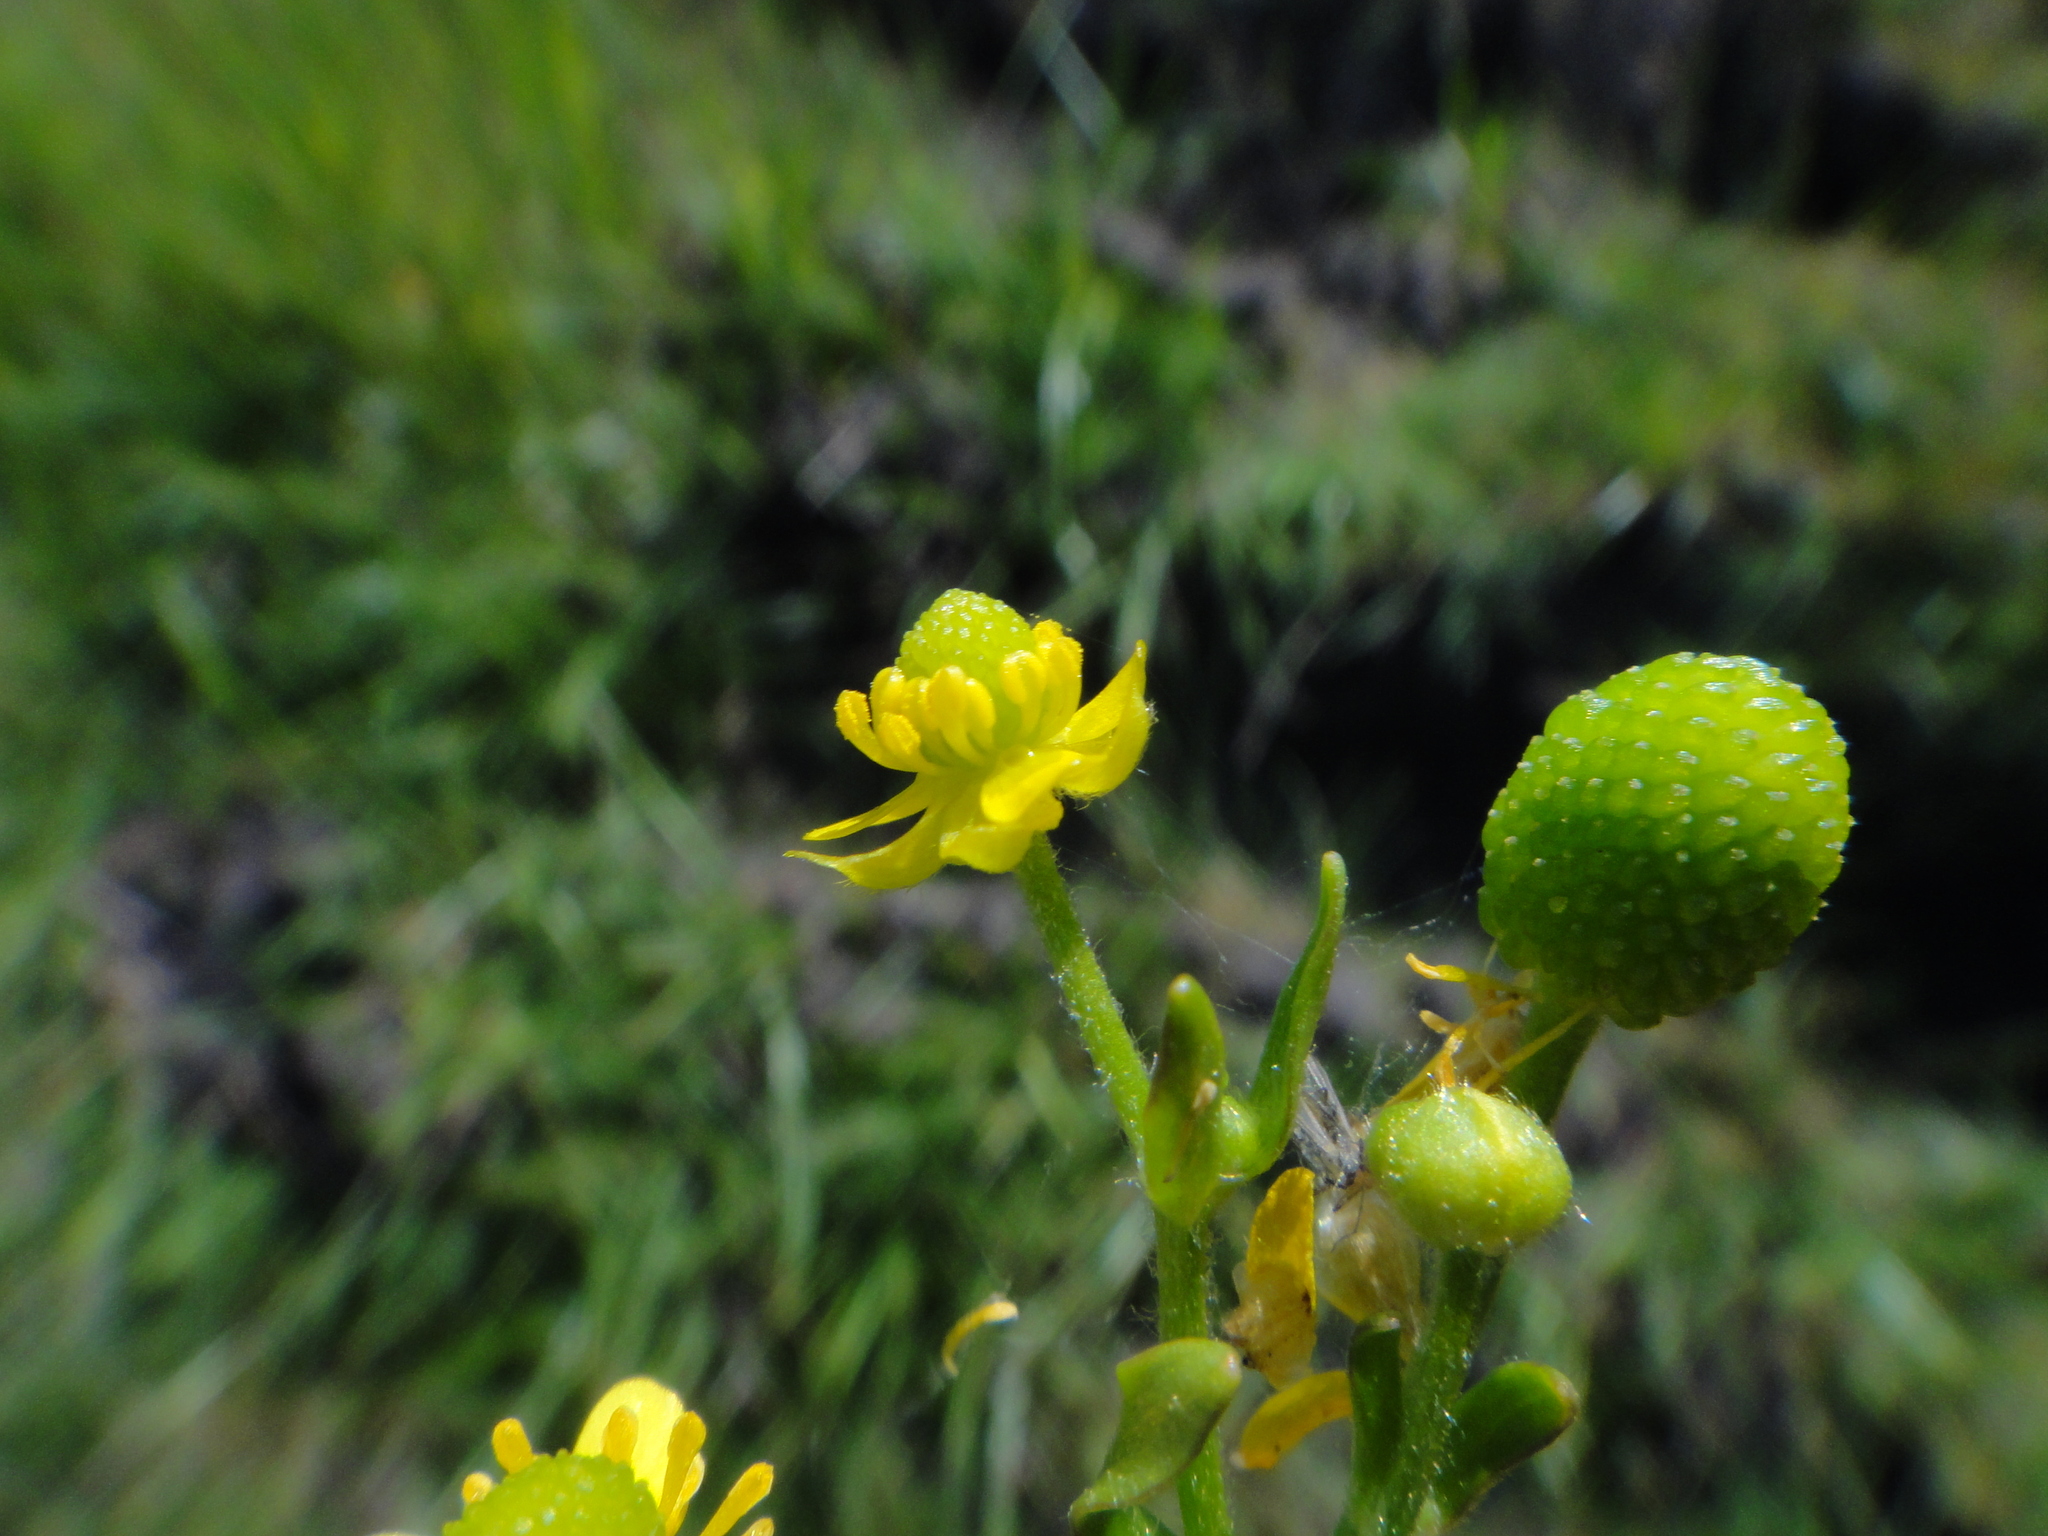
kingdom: Plantae
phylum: Tracheophyta
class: Magnoliopsida
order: Ranunculales
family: Ranunculaceae
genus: Ranunculus
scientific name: Ranunculus sceleratus
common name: Celery-leaved buttercup
